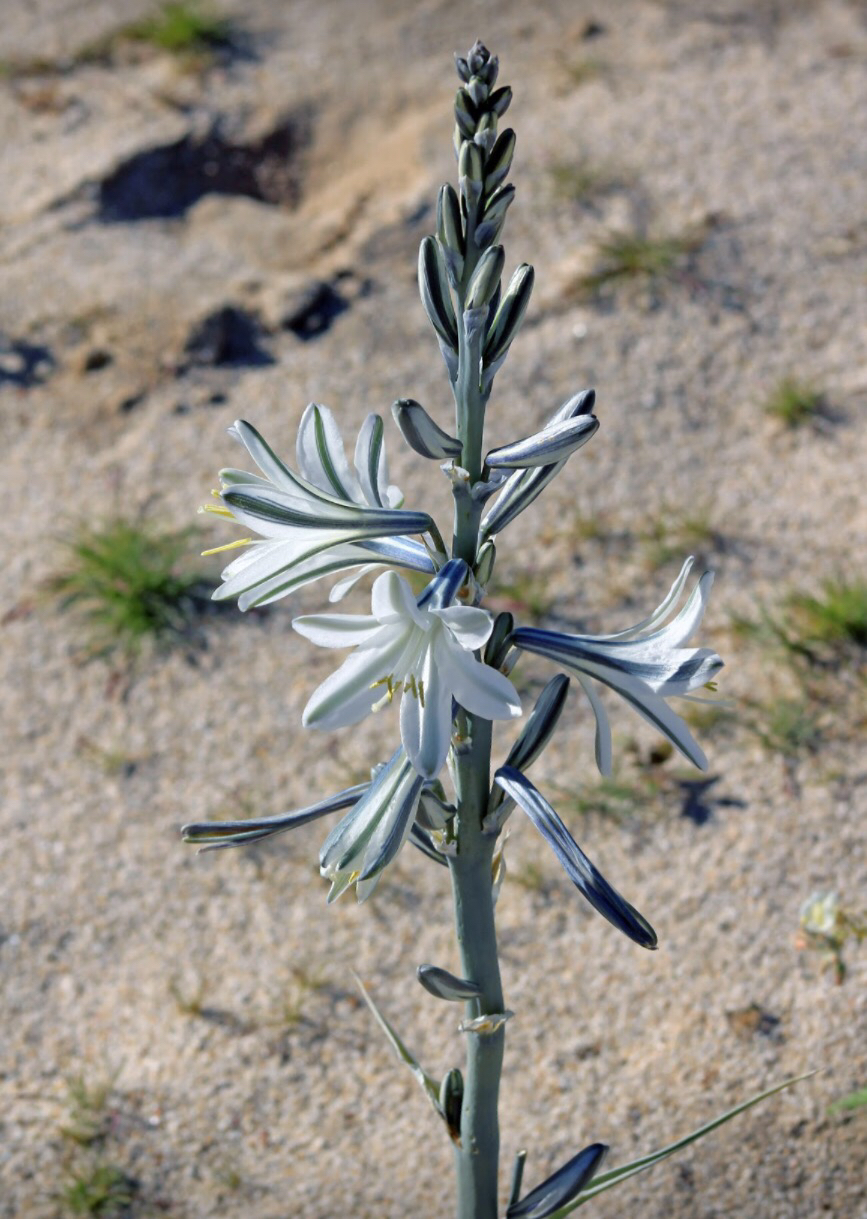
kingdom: Plantae
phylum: Tracheophyta
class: Liliopsida
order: Asparagales
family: Asparagaceae
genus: Hesperocallis
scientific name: Hesperocallis undulata
